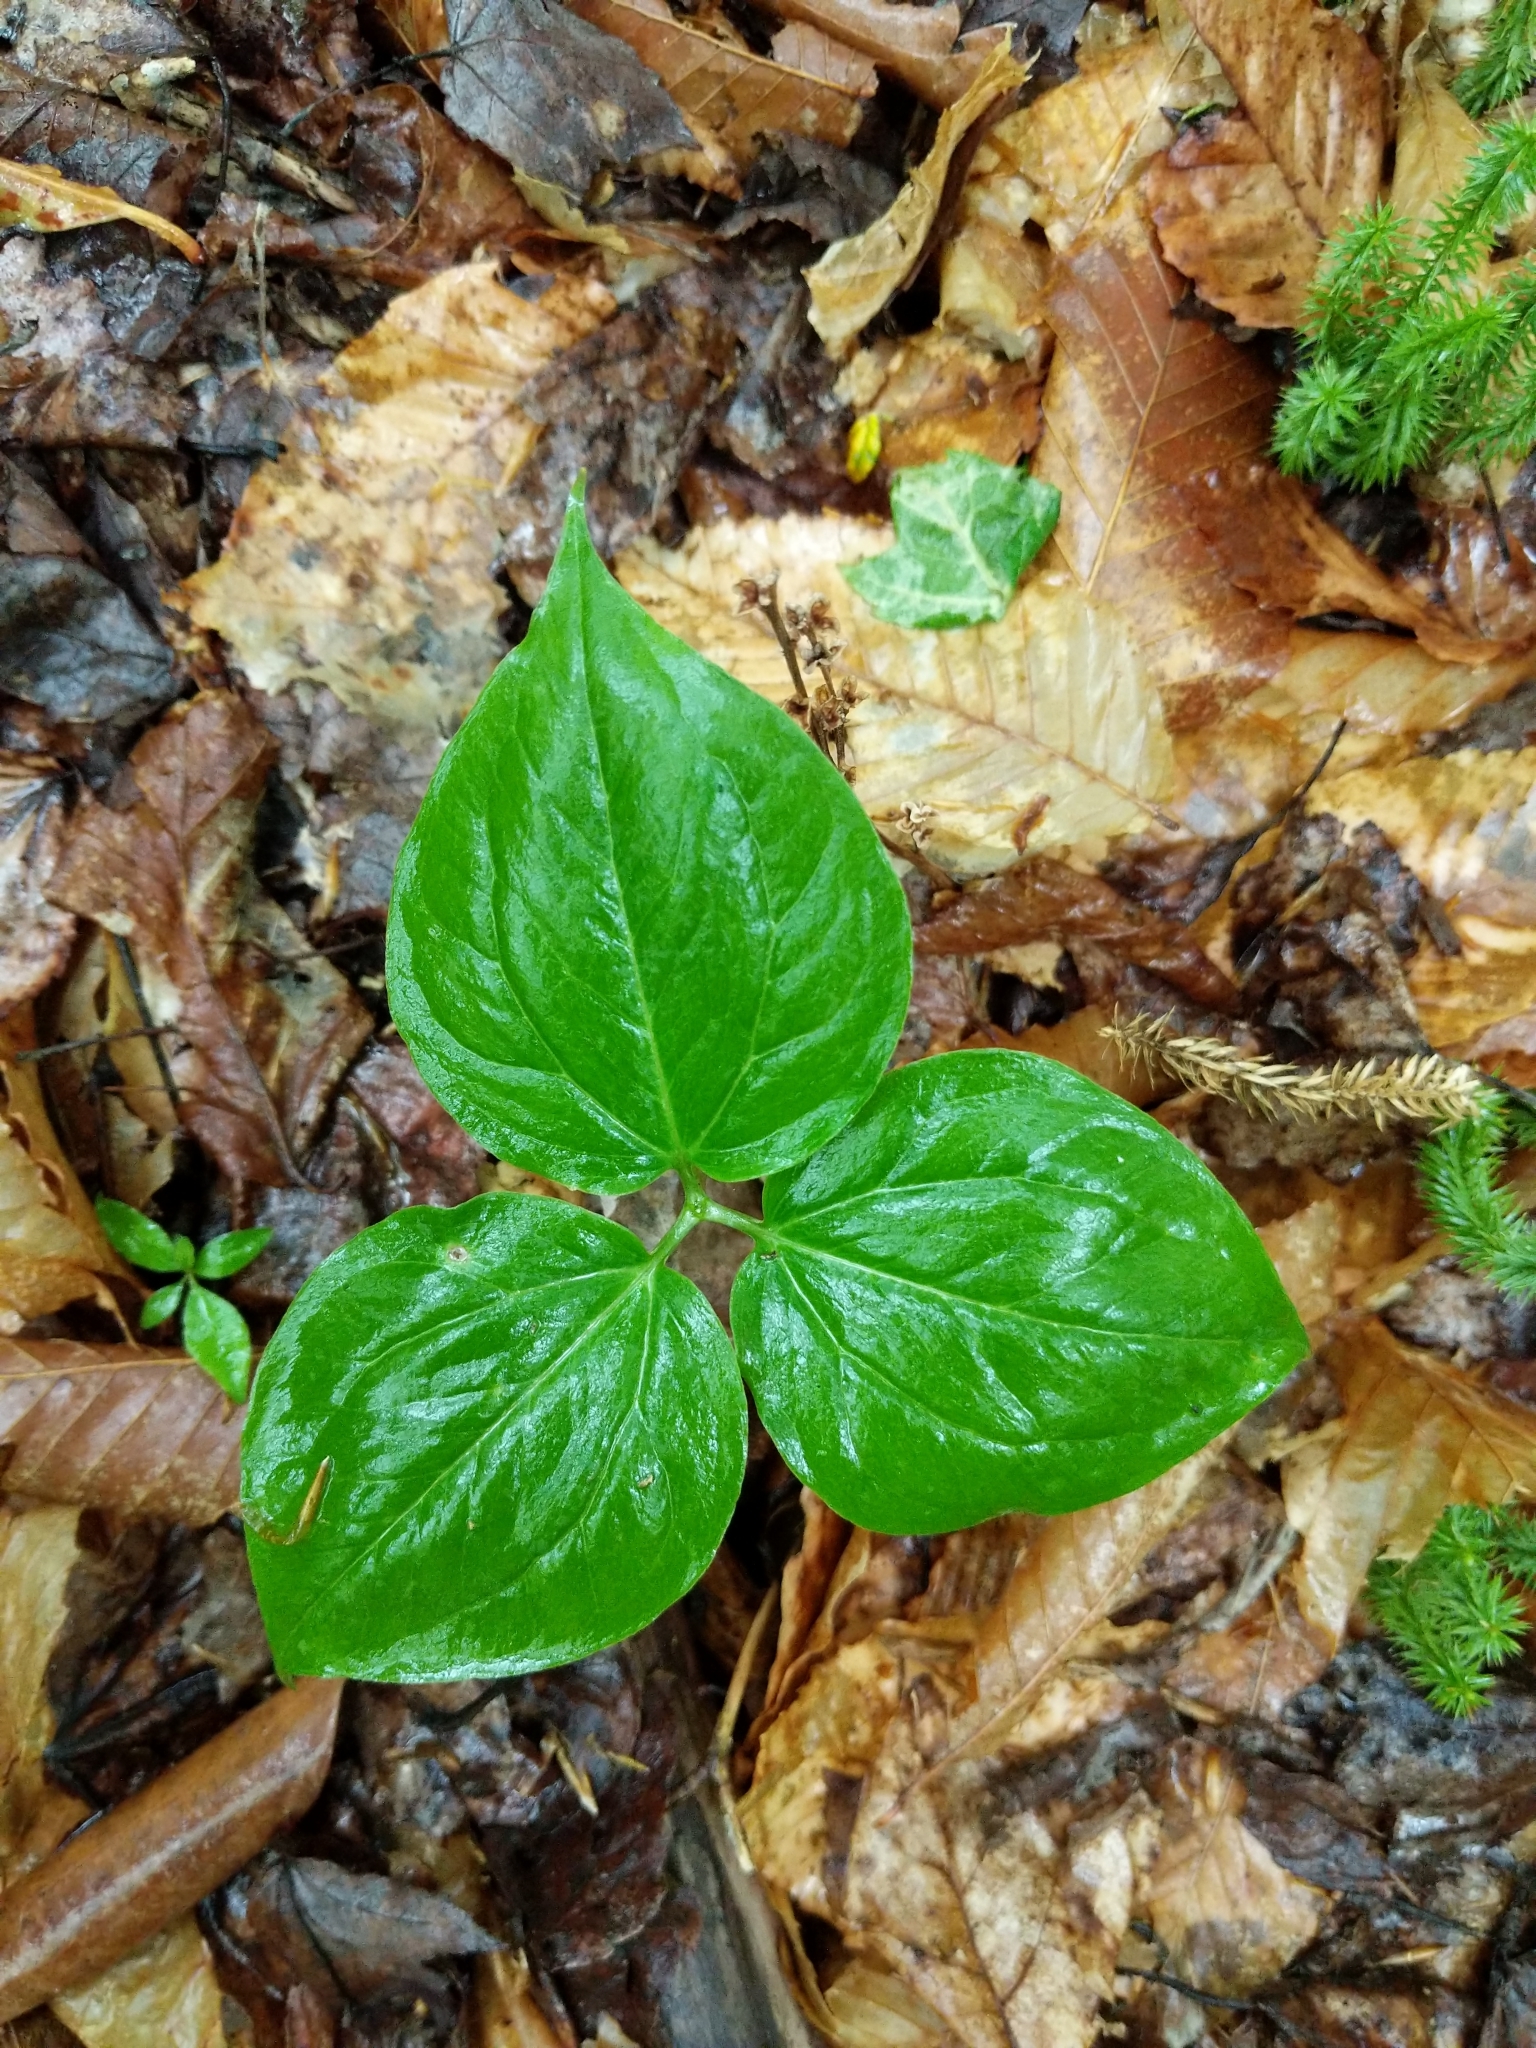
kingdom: Plantae
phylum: Tracheophyta
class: Liliopsida
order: Liliales
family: Melanthiaceae
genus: Trillium
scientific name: Trillium undulatum
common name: Paint trillium
